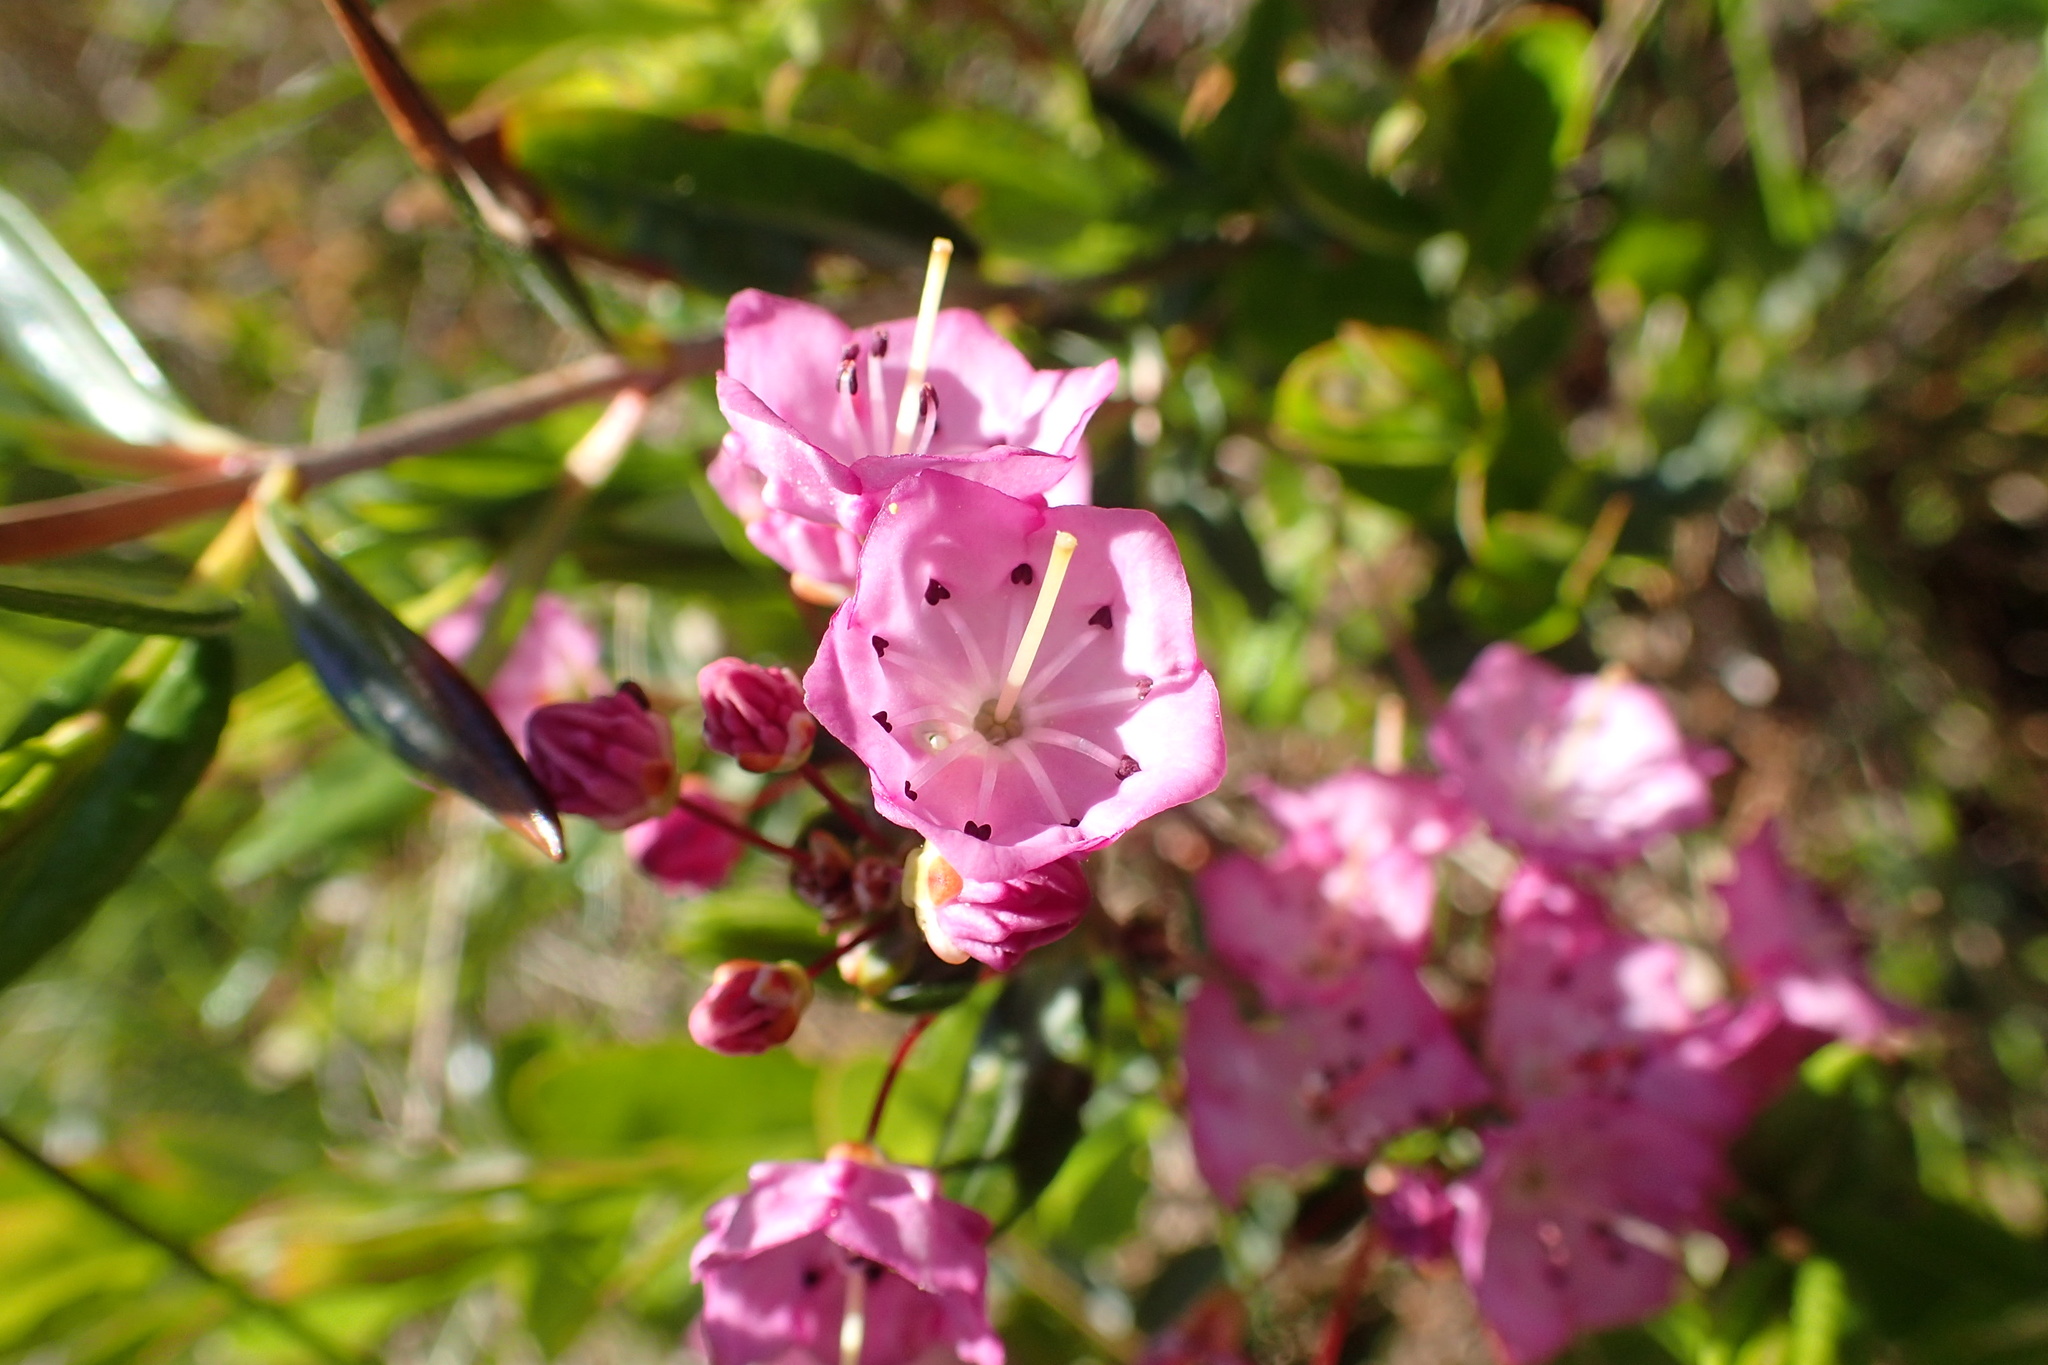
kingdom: Plantae
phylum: Tracheophyta
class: Magnoliopsida
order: Ericales
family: Ericaceae
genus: Kalmia
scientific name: Kalmia polifolia
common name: Bog-laurel
